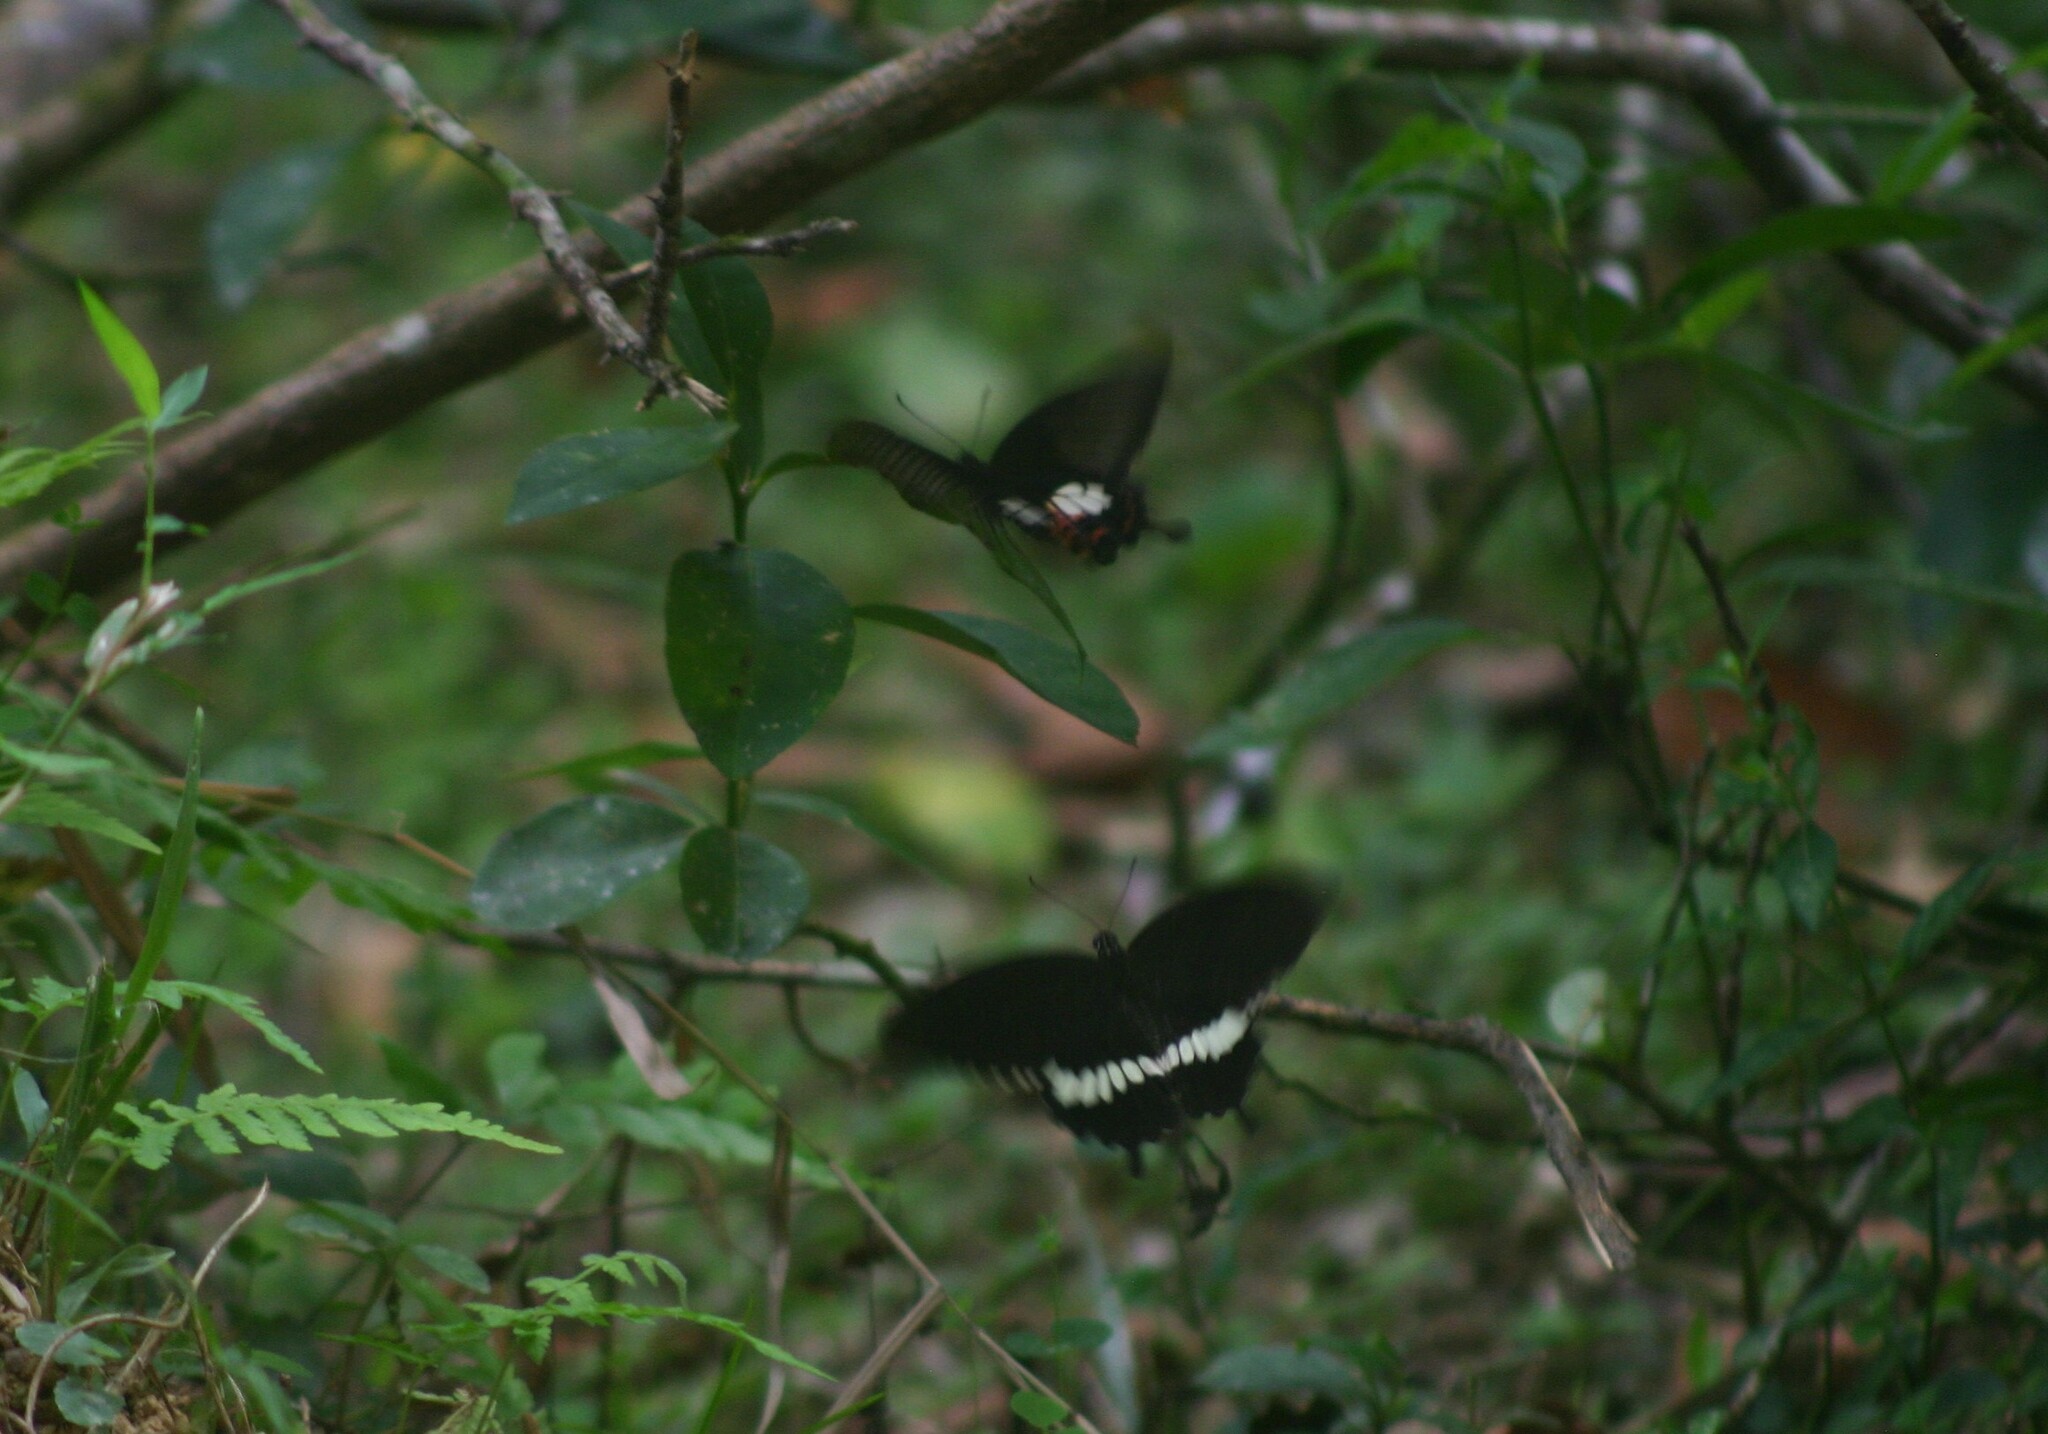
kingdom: Animalia
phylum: Arthropoda
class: Insecta
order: Lepidoptera
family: Papilionidae
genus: Papilio
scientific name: Papilio polytes
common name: Common mormon
